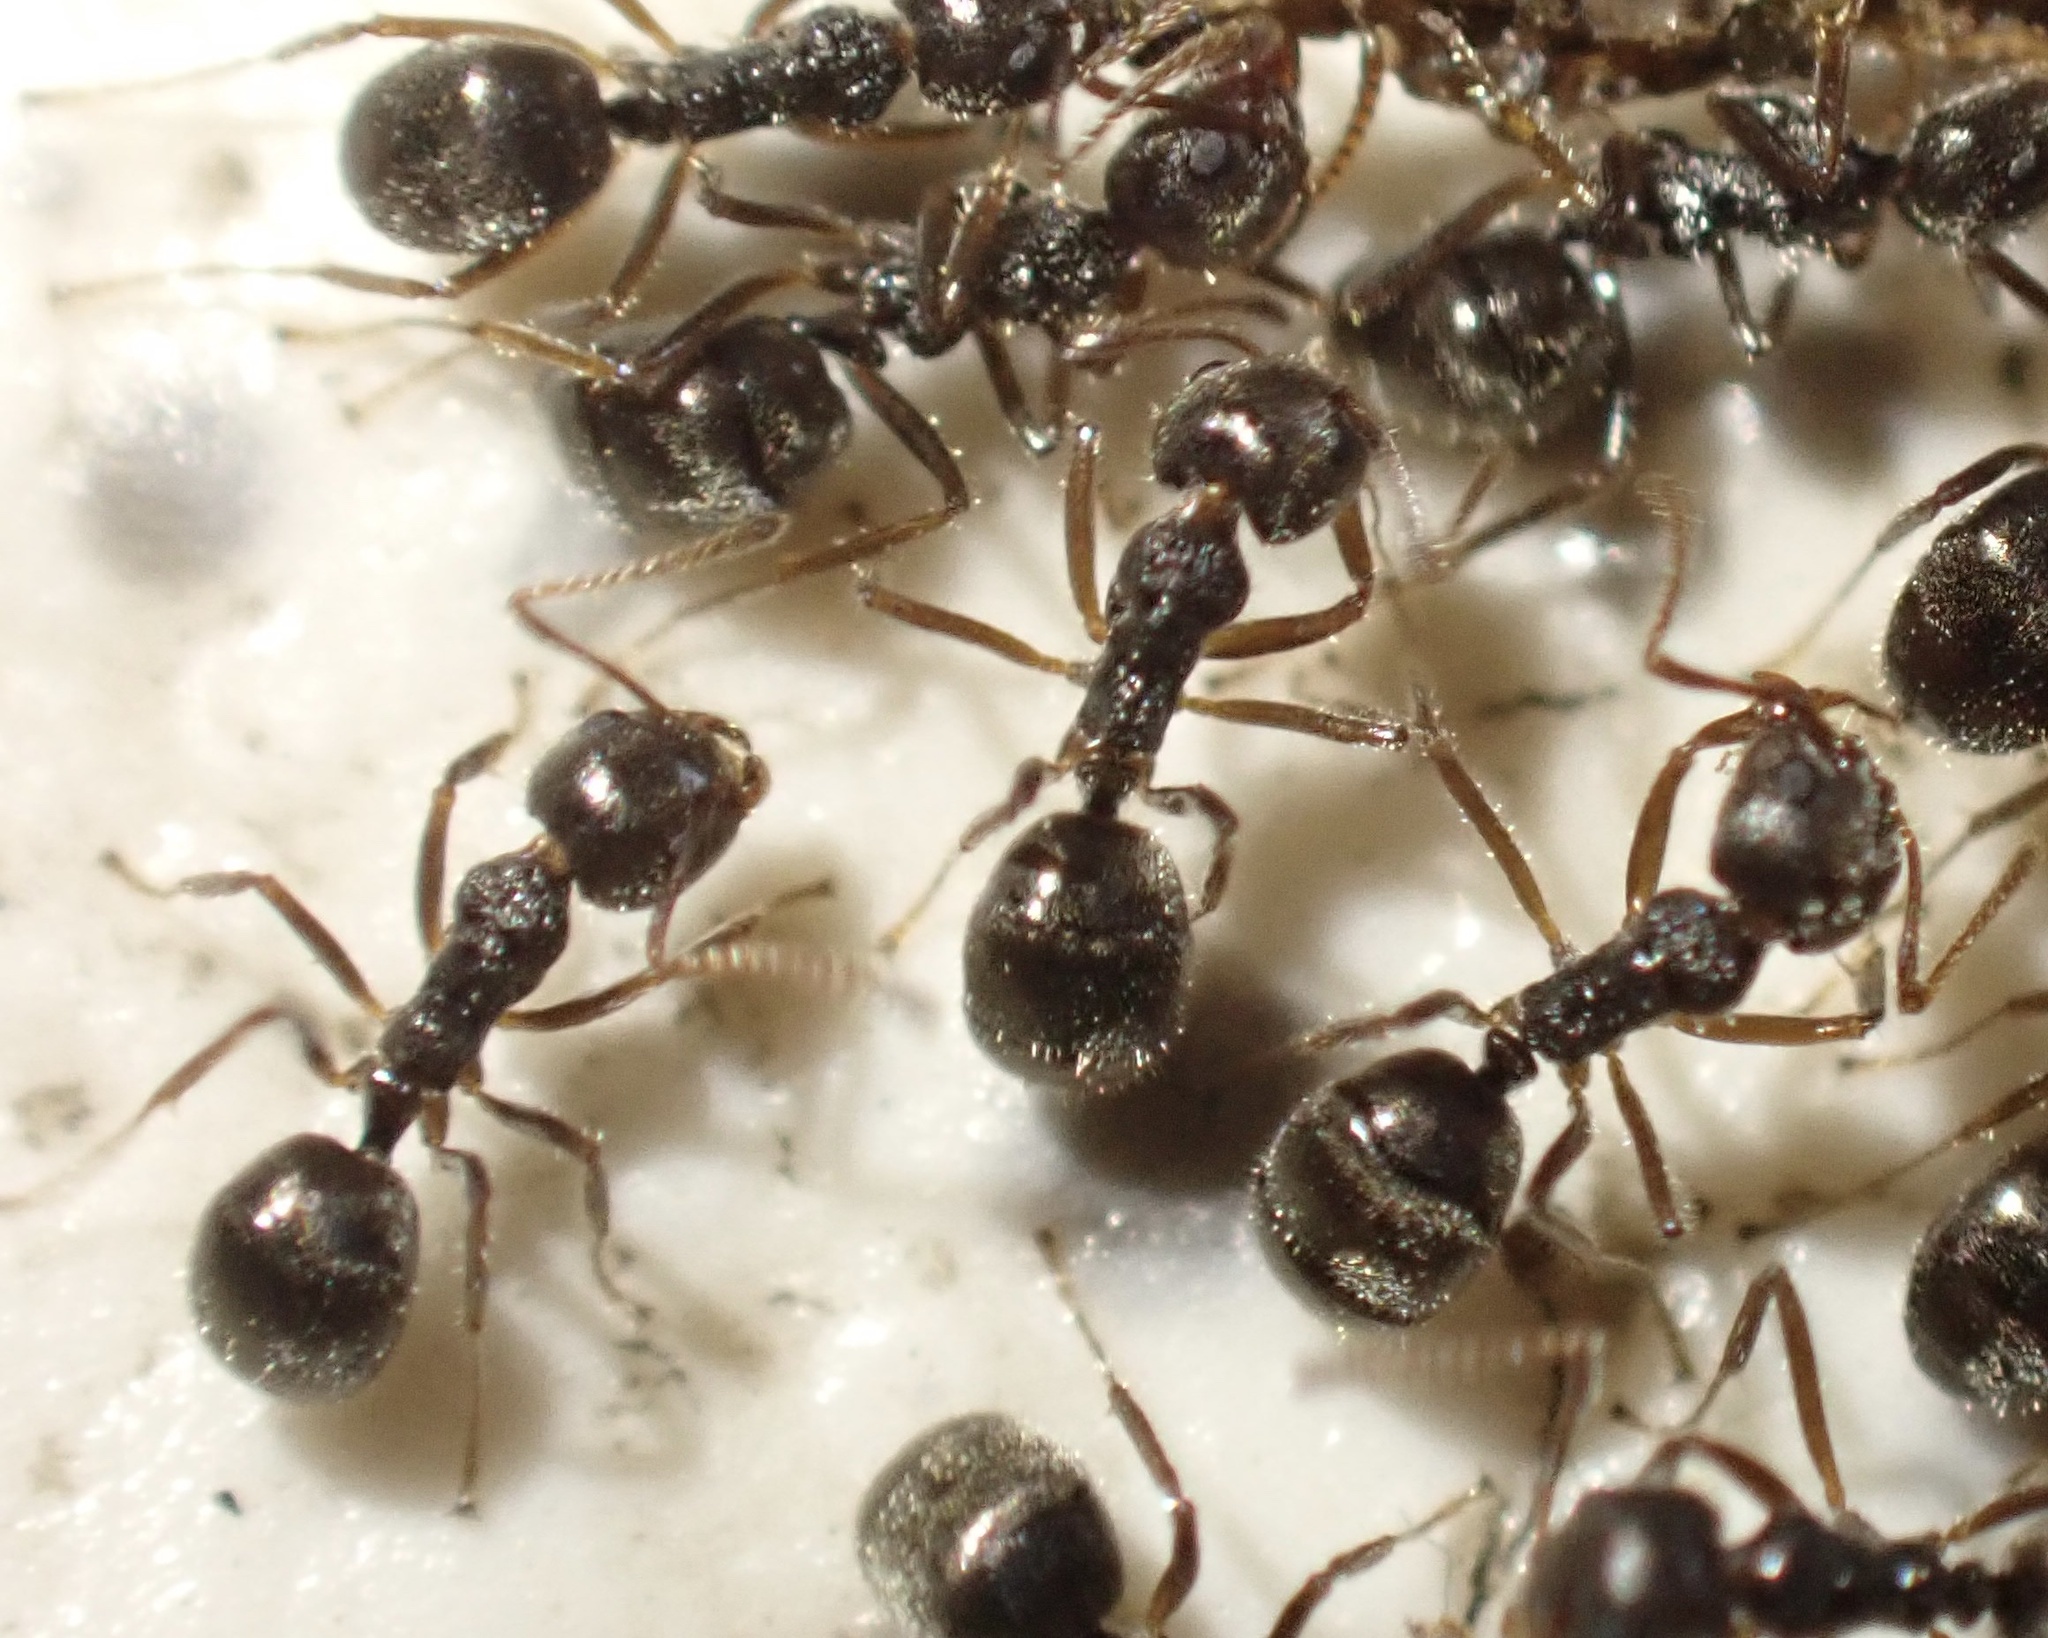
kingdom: Animalia
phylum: Arthropoda
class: Insecta
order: Hymenoptera
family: Formicidae
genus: Dolichoderus
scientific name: Dolichoderus thoracicus
